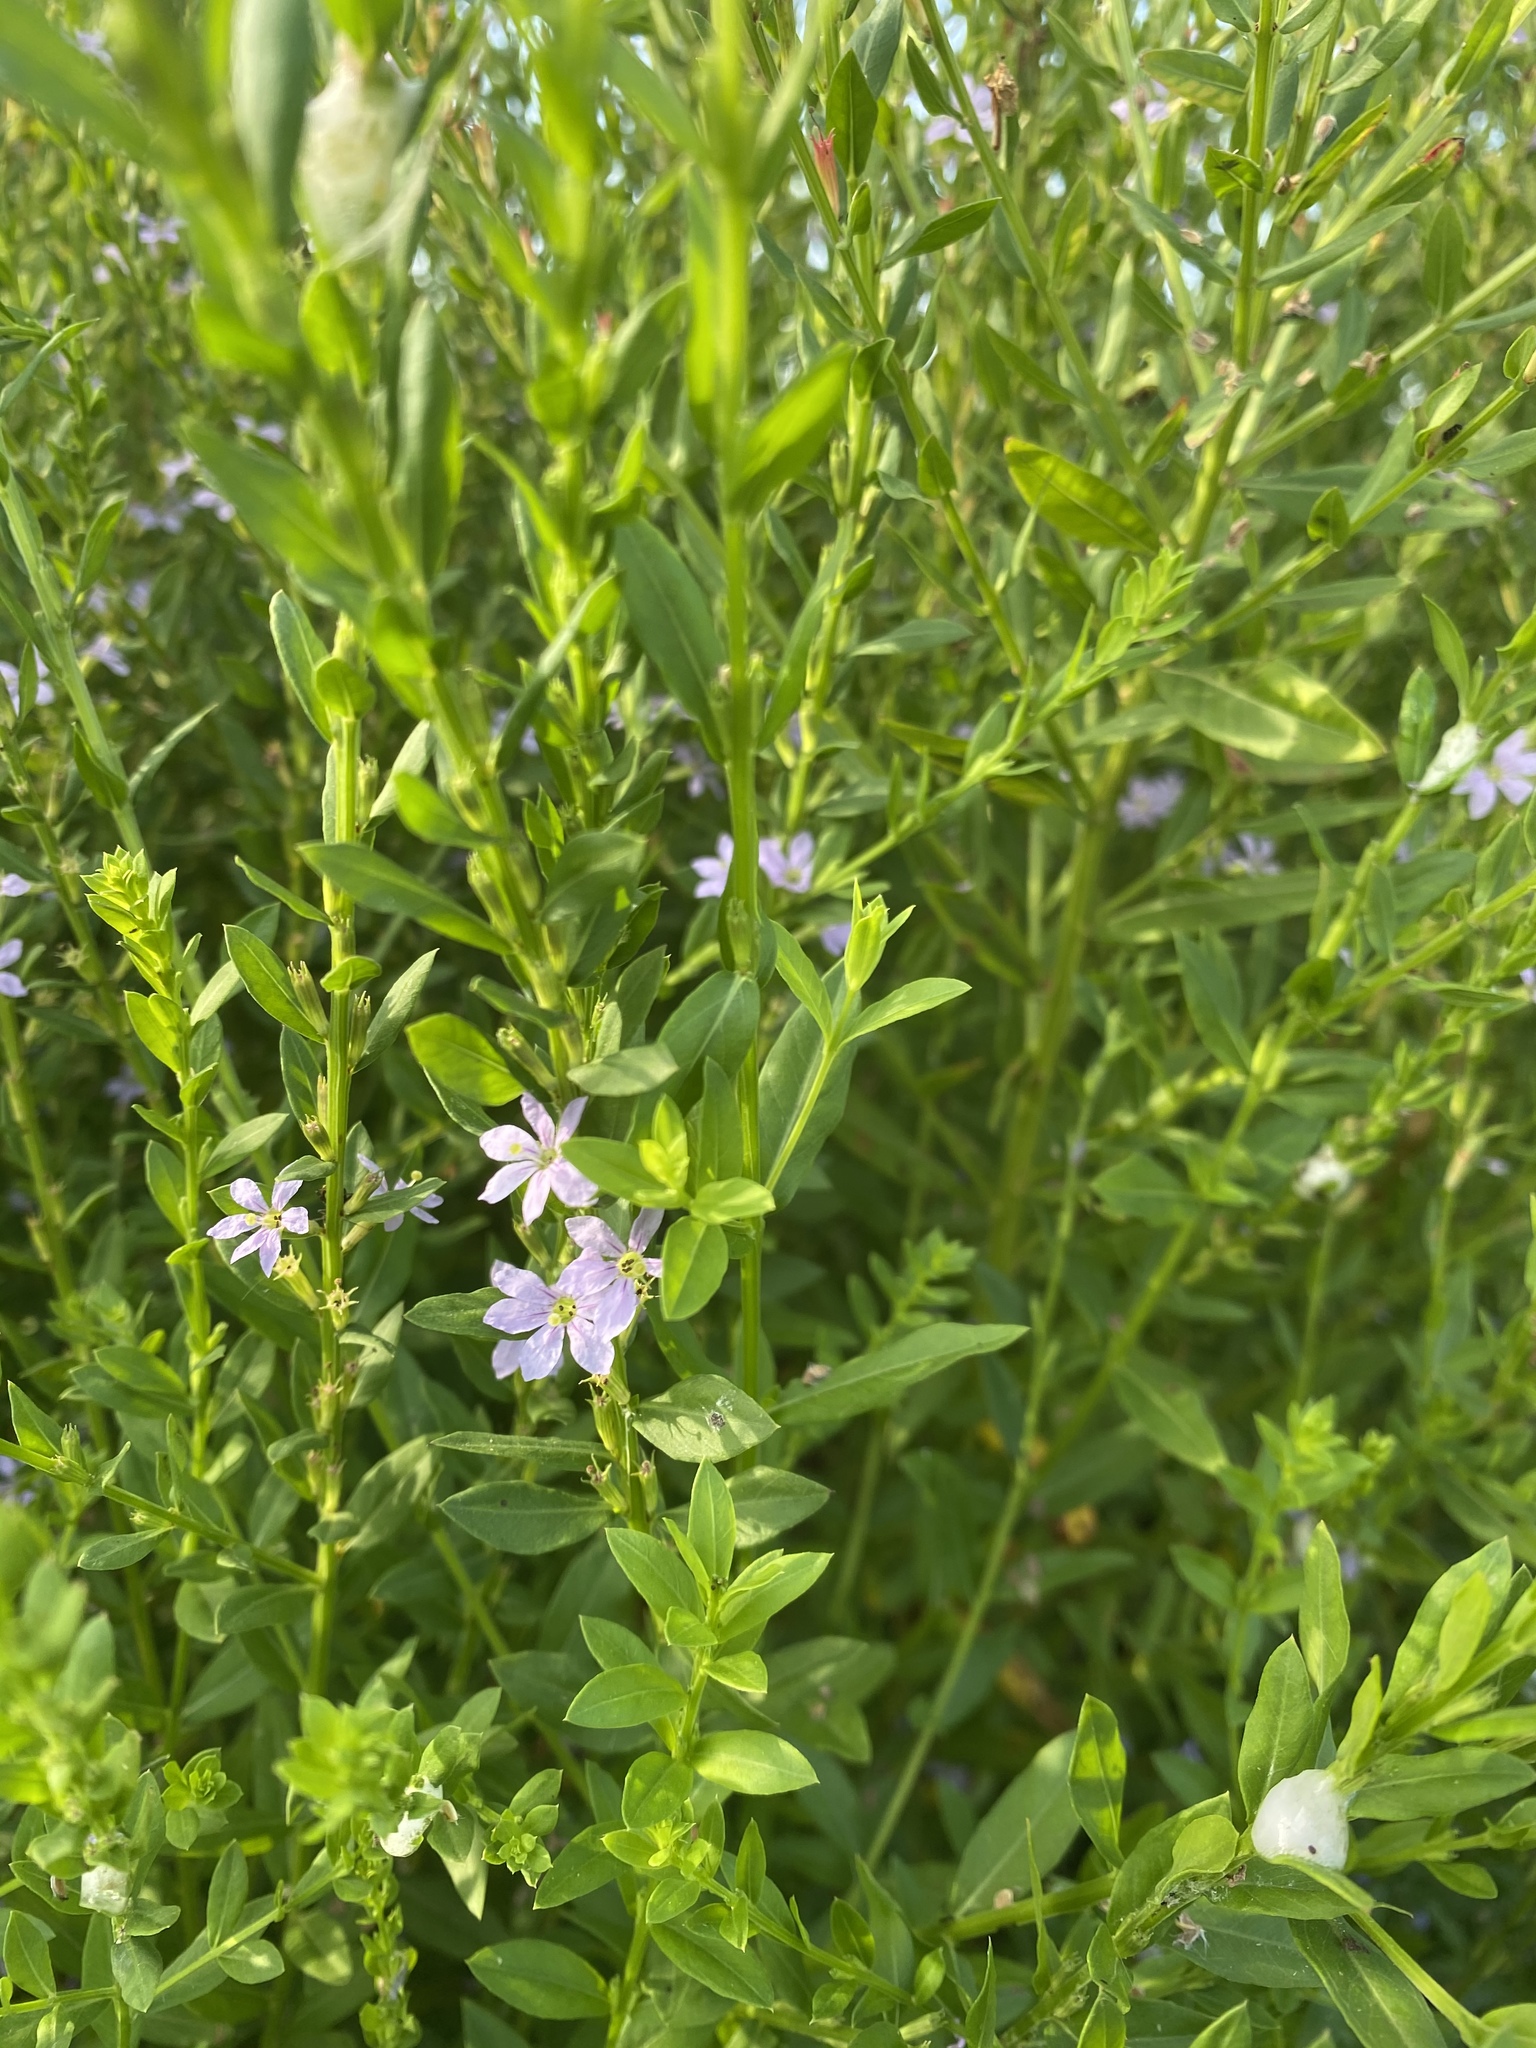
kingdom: Plantae
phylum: Tracheophyta
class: Magnoliopsida
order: Myrtales
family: Lythraceae
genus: Lythrum
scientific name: Lythrum alatum
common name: Winged loosestrife
